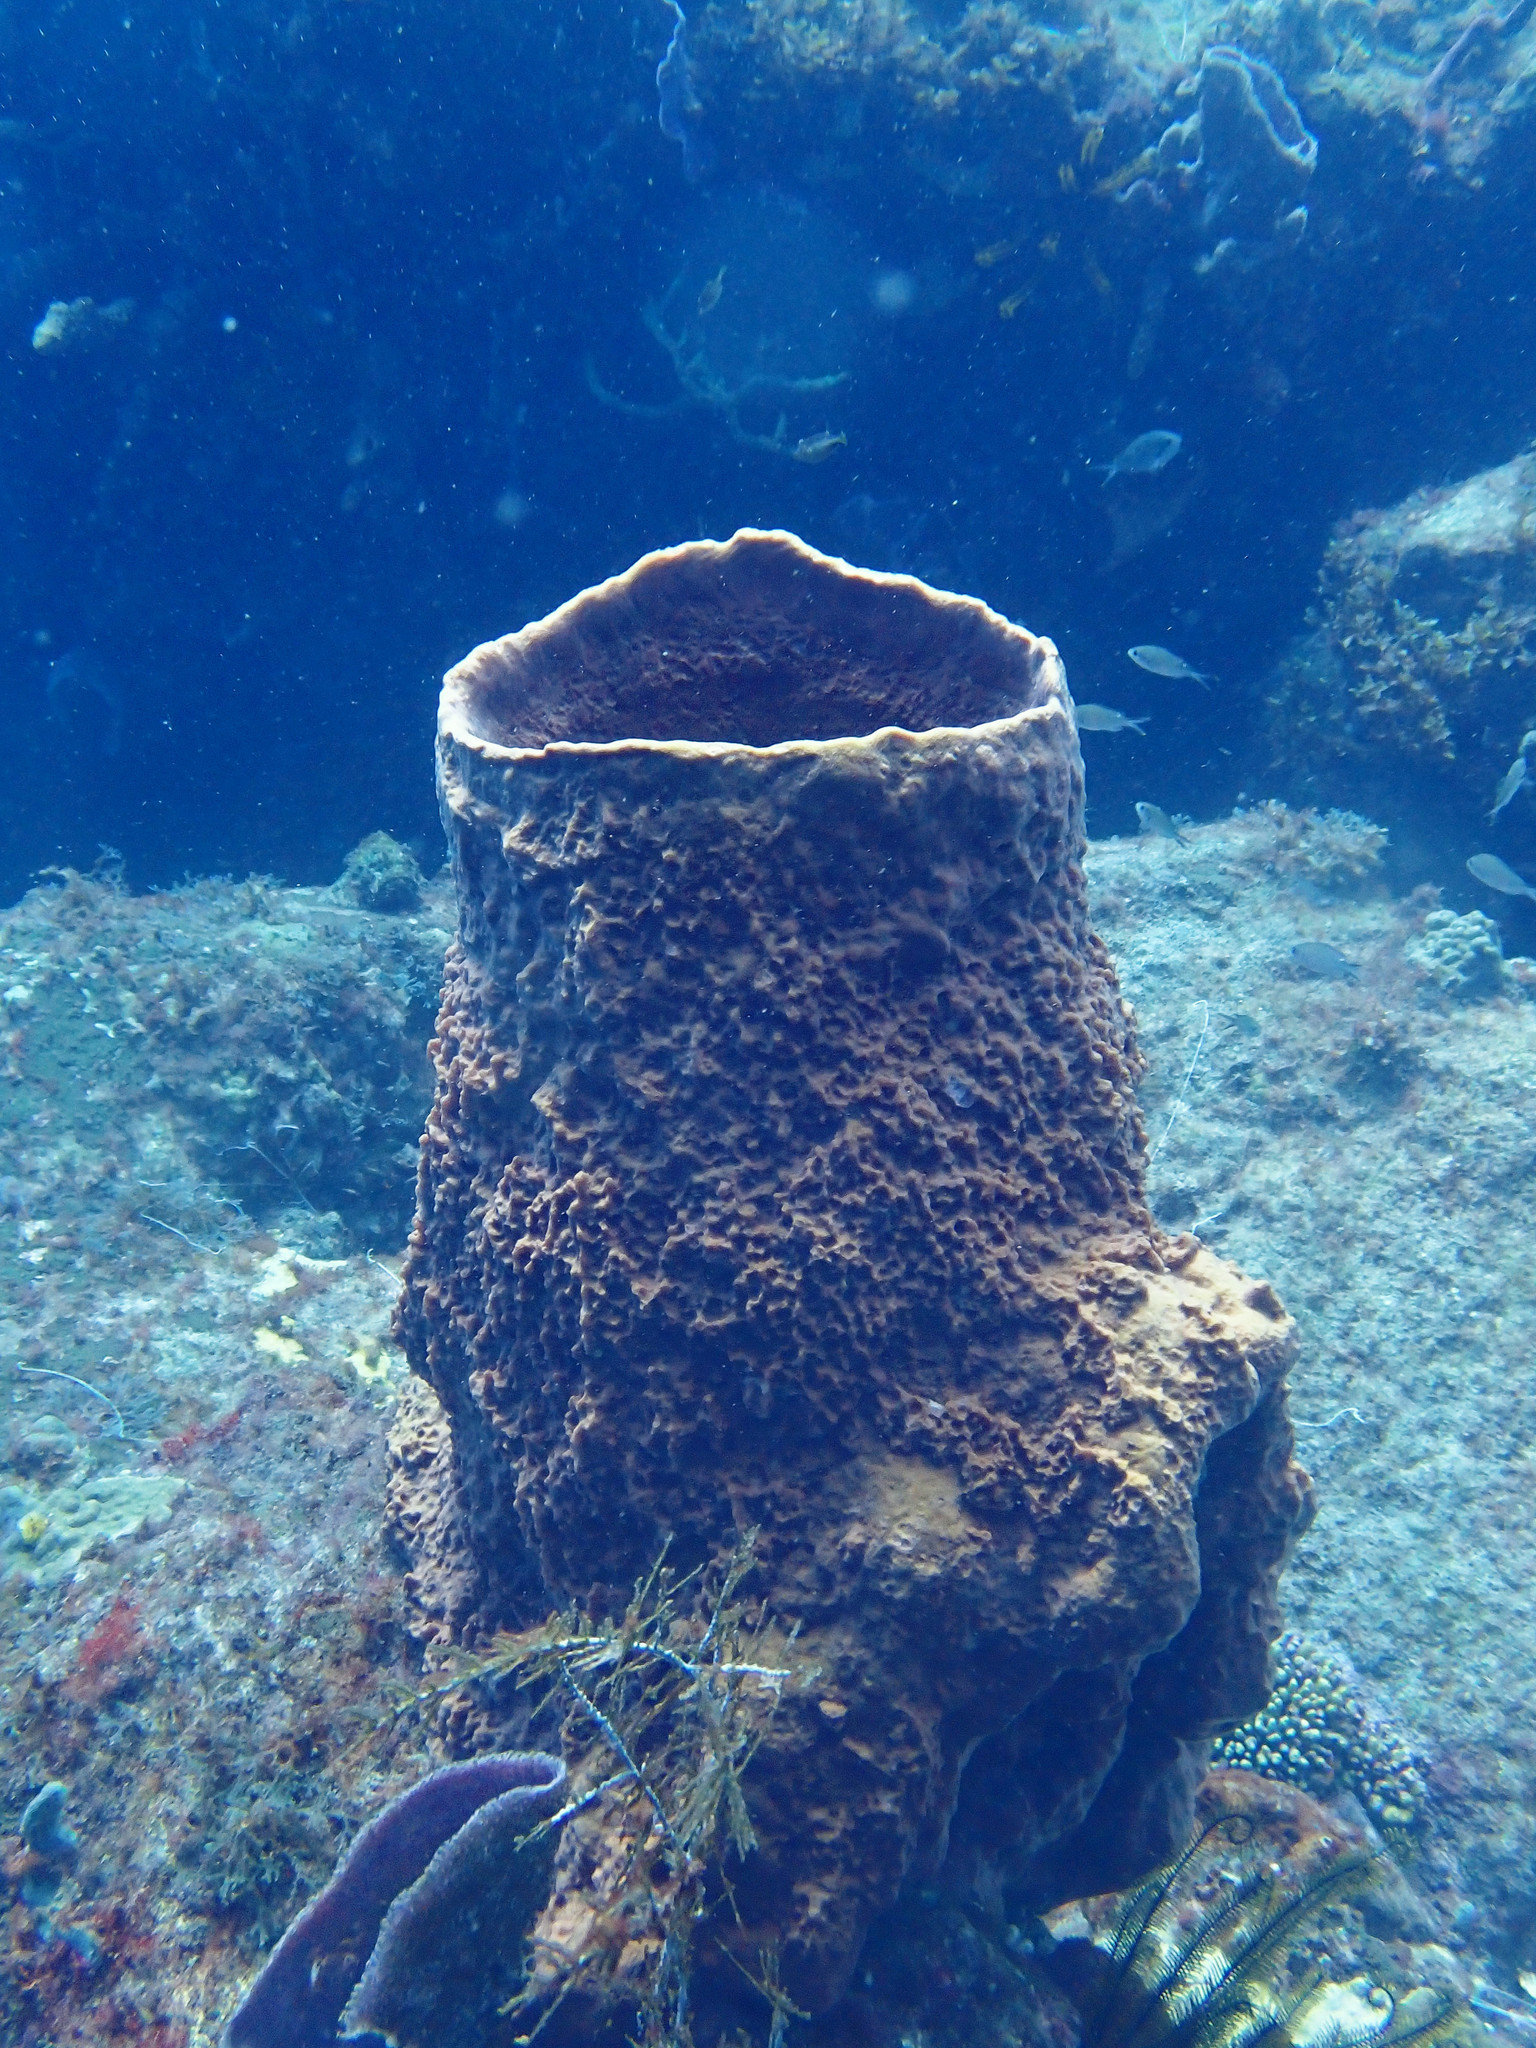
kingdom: Animalia
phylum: Porifera
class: Demospongiae
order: Haplosclerida
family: Petrosiidae
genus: Xestospongia
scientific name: Xestospongia muta
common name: Giant barrel sponge
